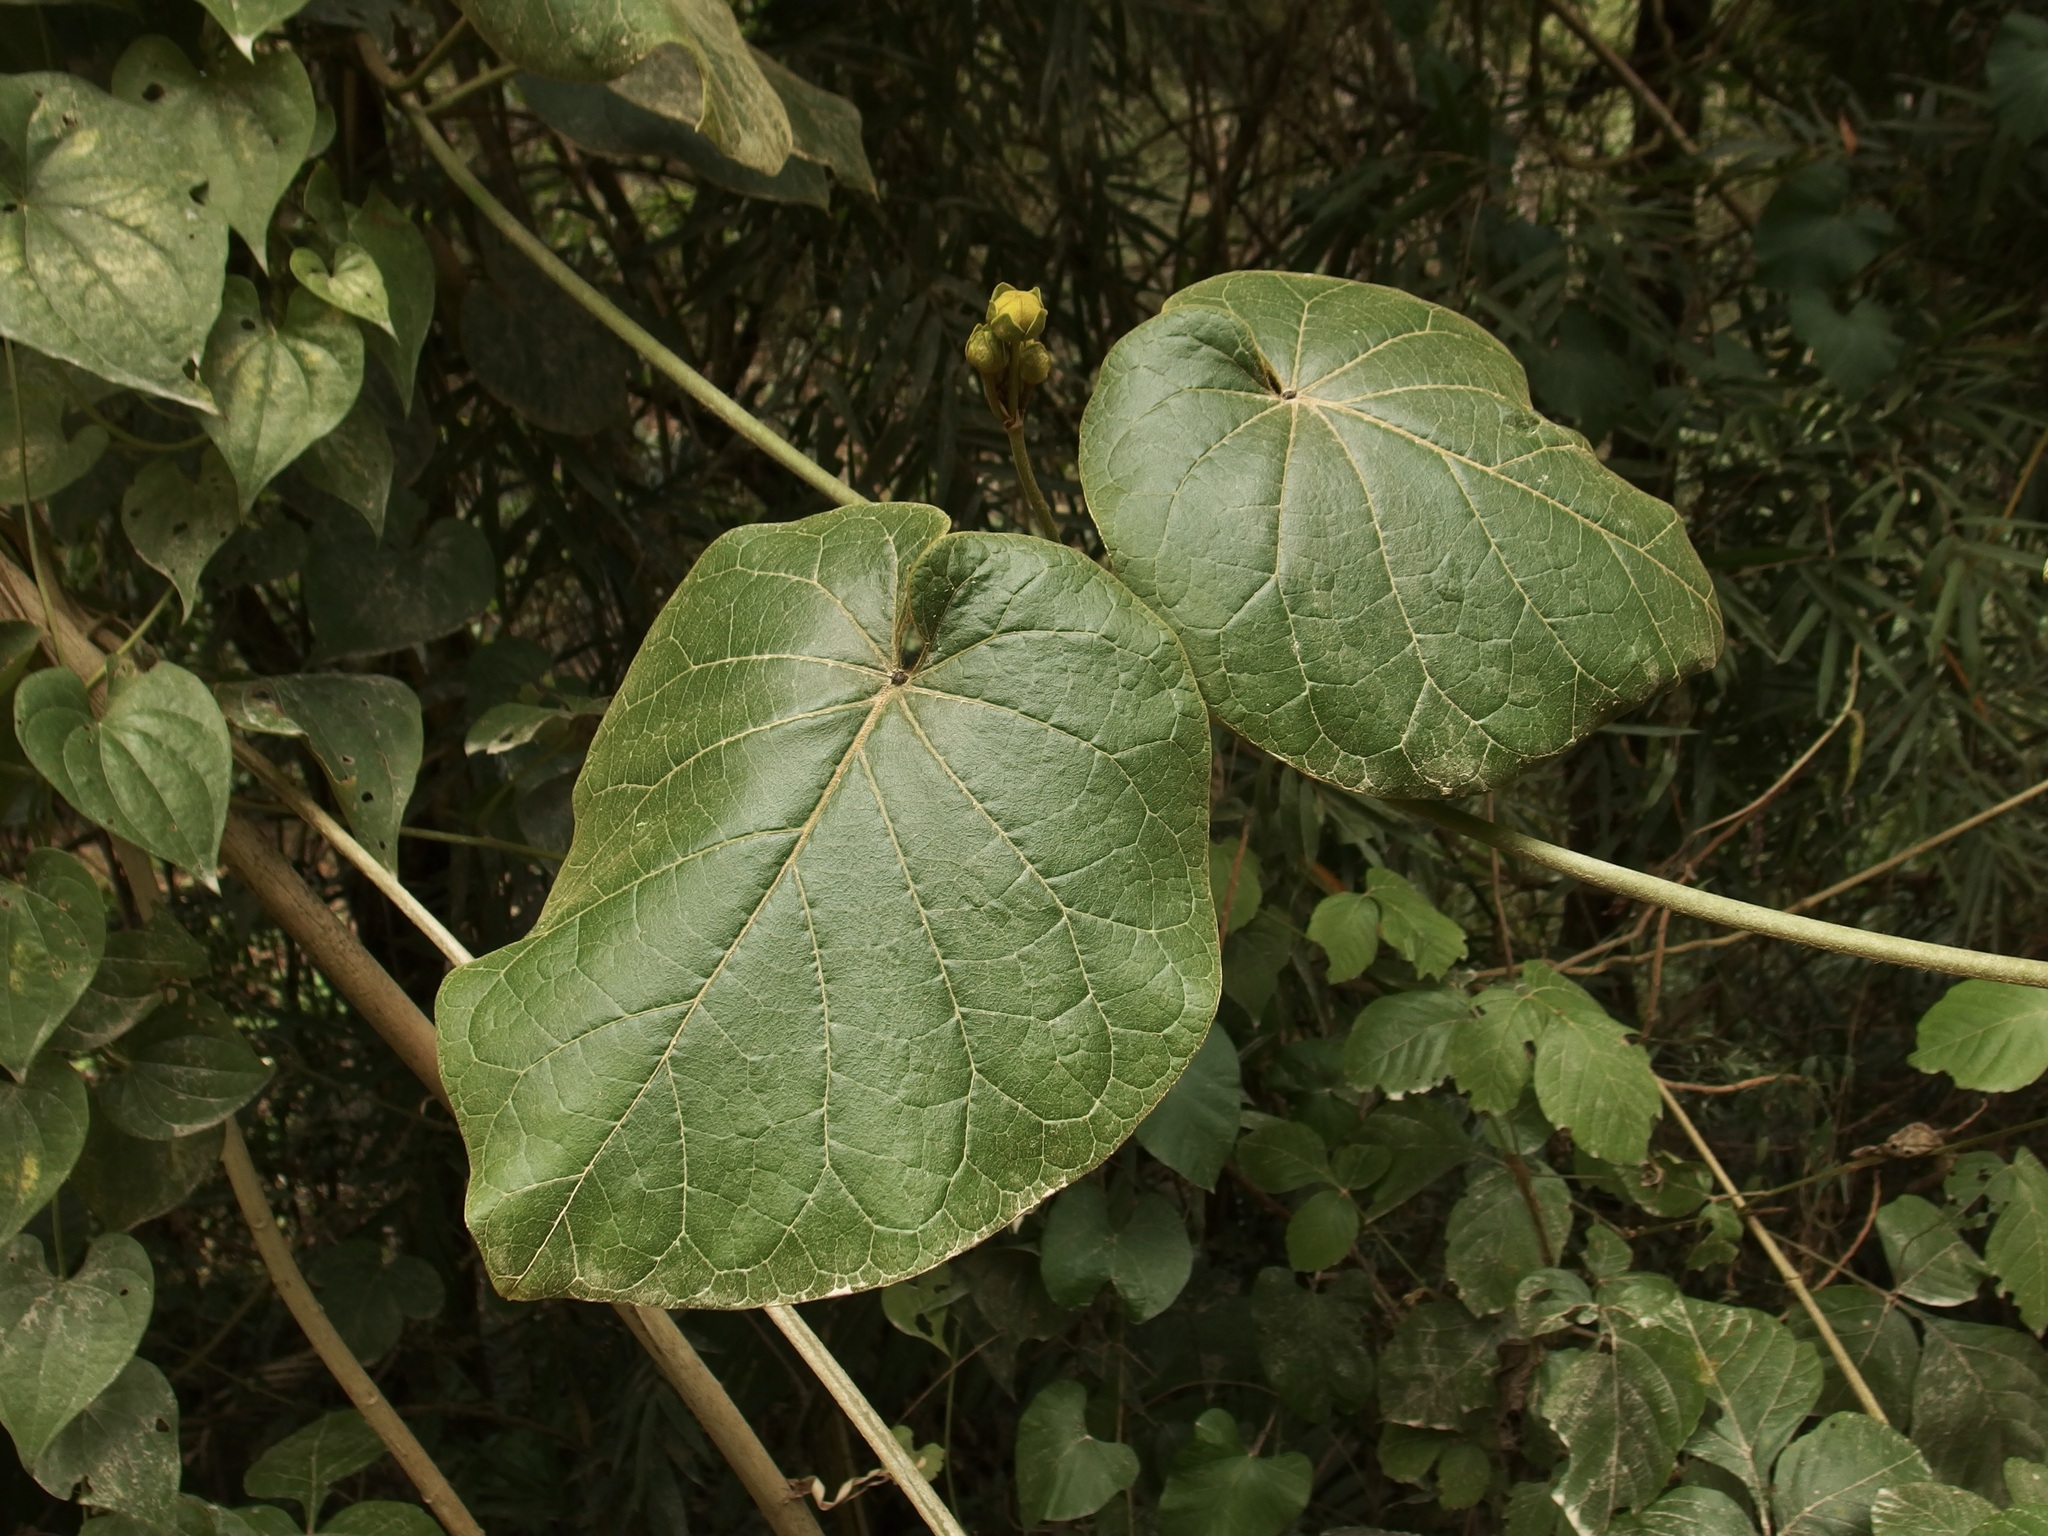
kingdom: Plantae
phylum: Tracheophyta
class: Magnoliopsida
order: Gentianales
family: Apocynaceae
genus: Bruceholstia
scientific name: Bruceholstia sidifolia
